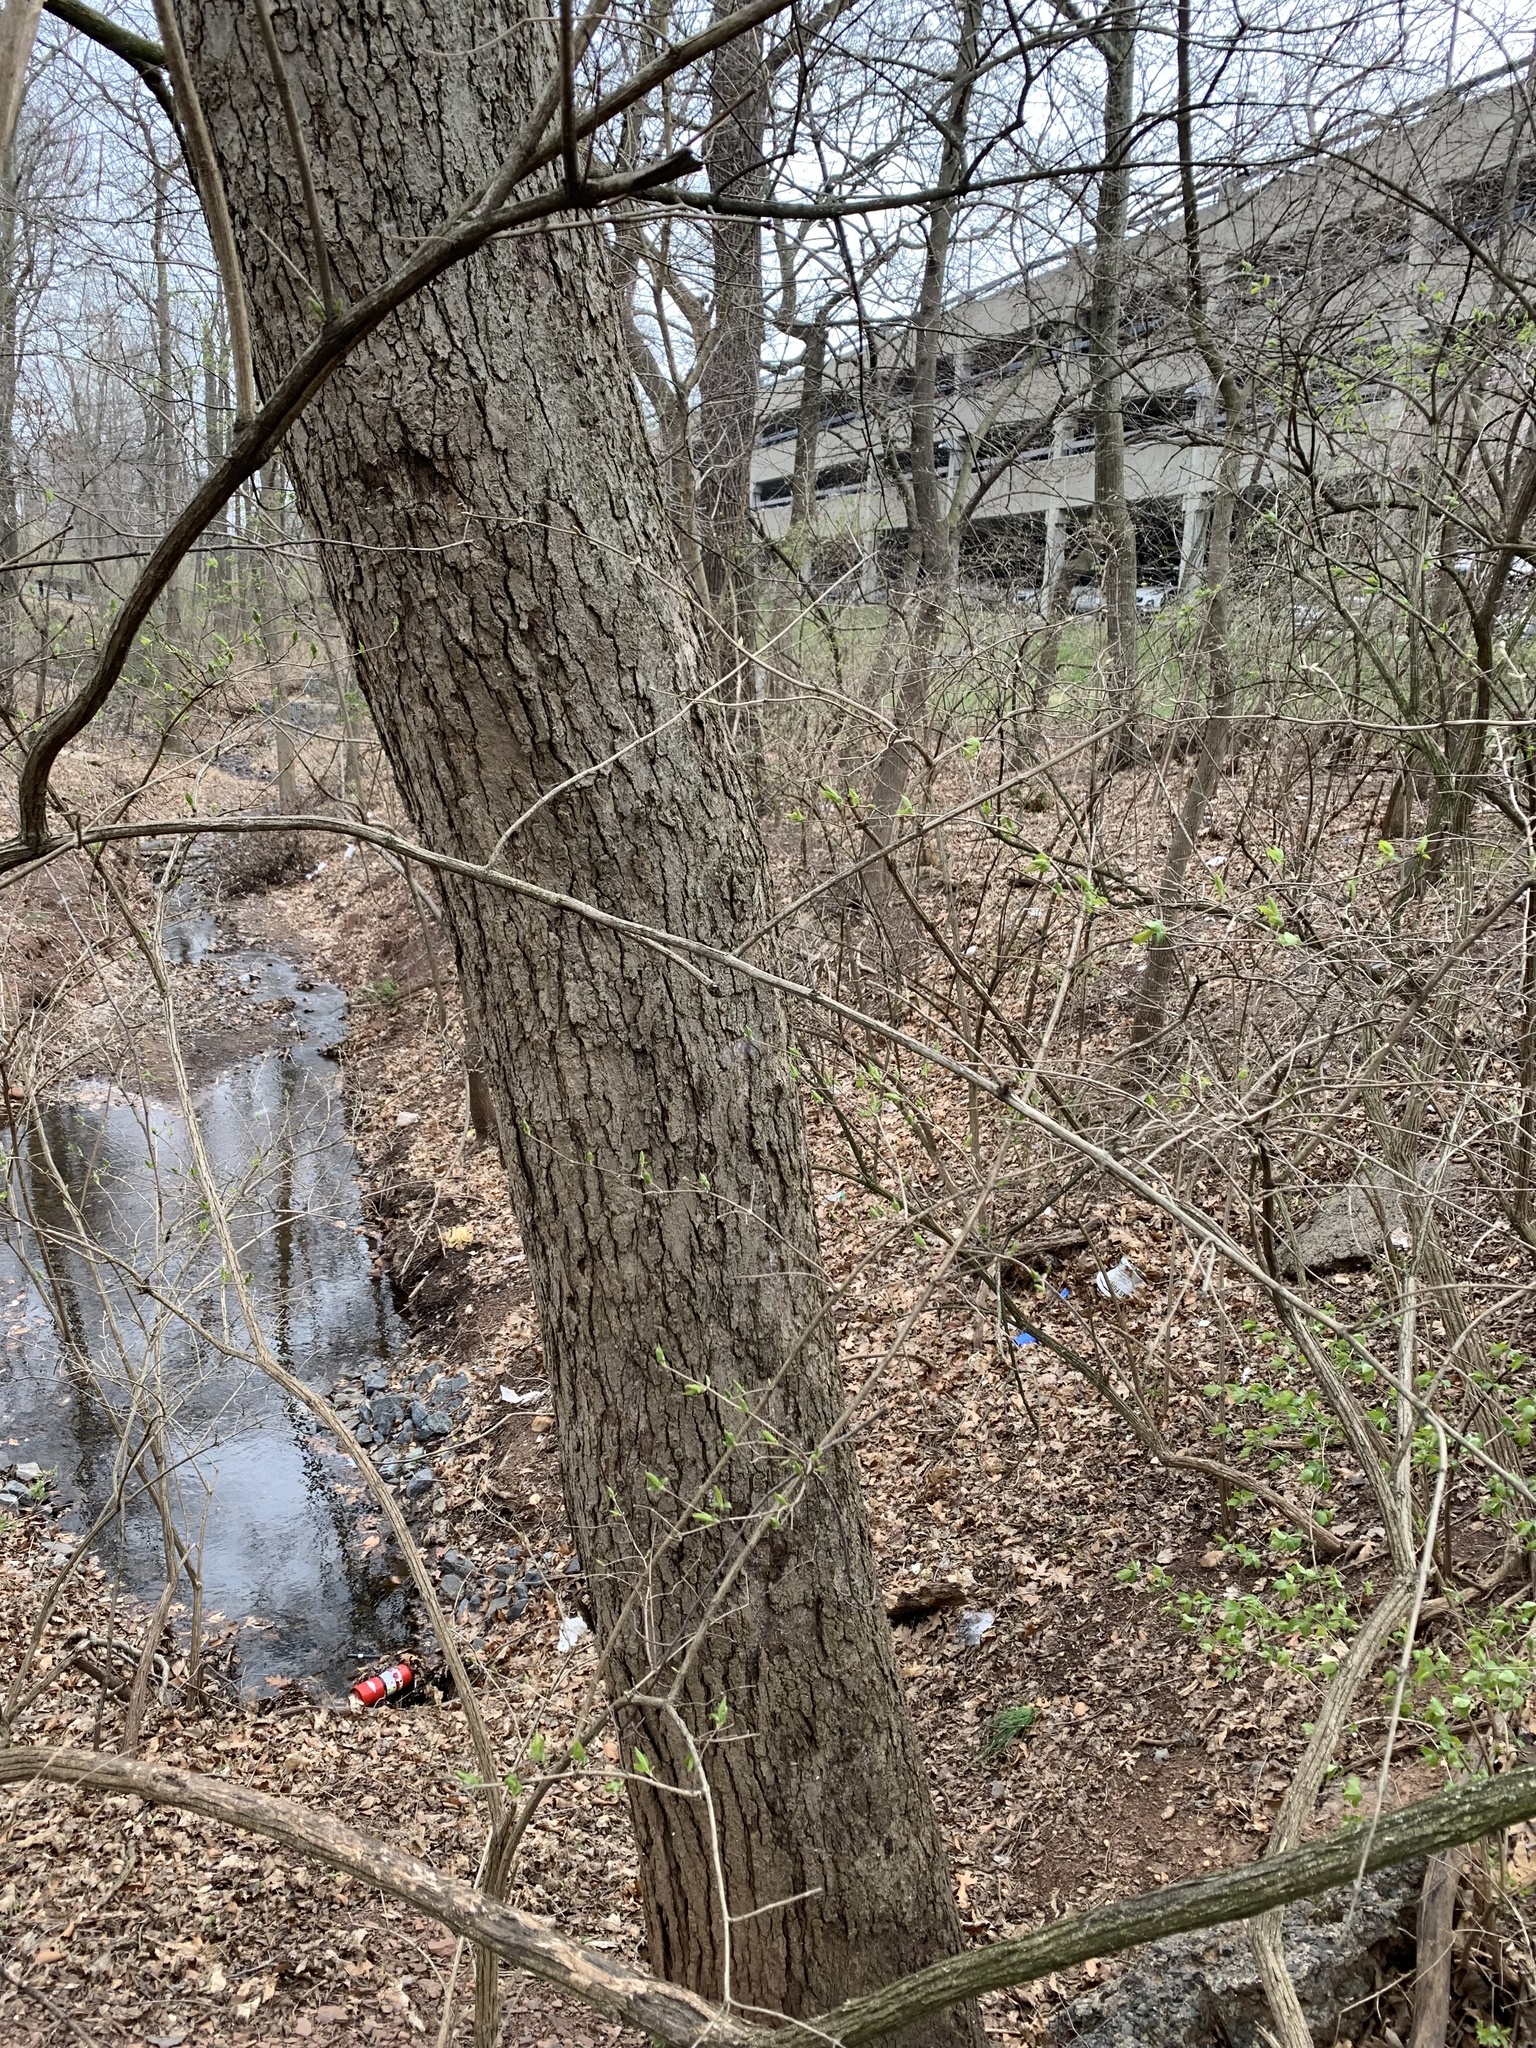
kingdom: Plantae
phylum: Tracheophyta
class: Magnoliopsida
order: Cornales
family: Nyssaceae
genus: Nyssa
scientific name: Nyssa sylvatica
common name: Black tupelo
